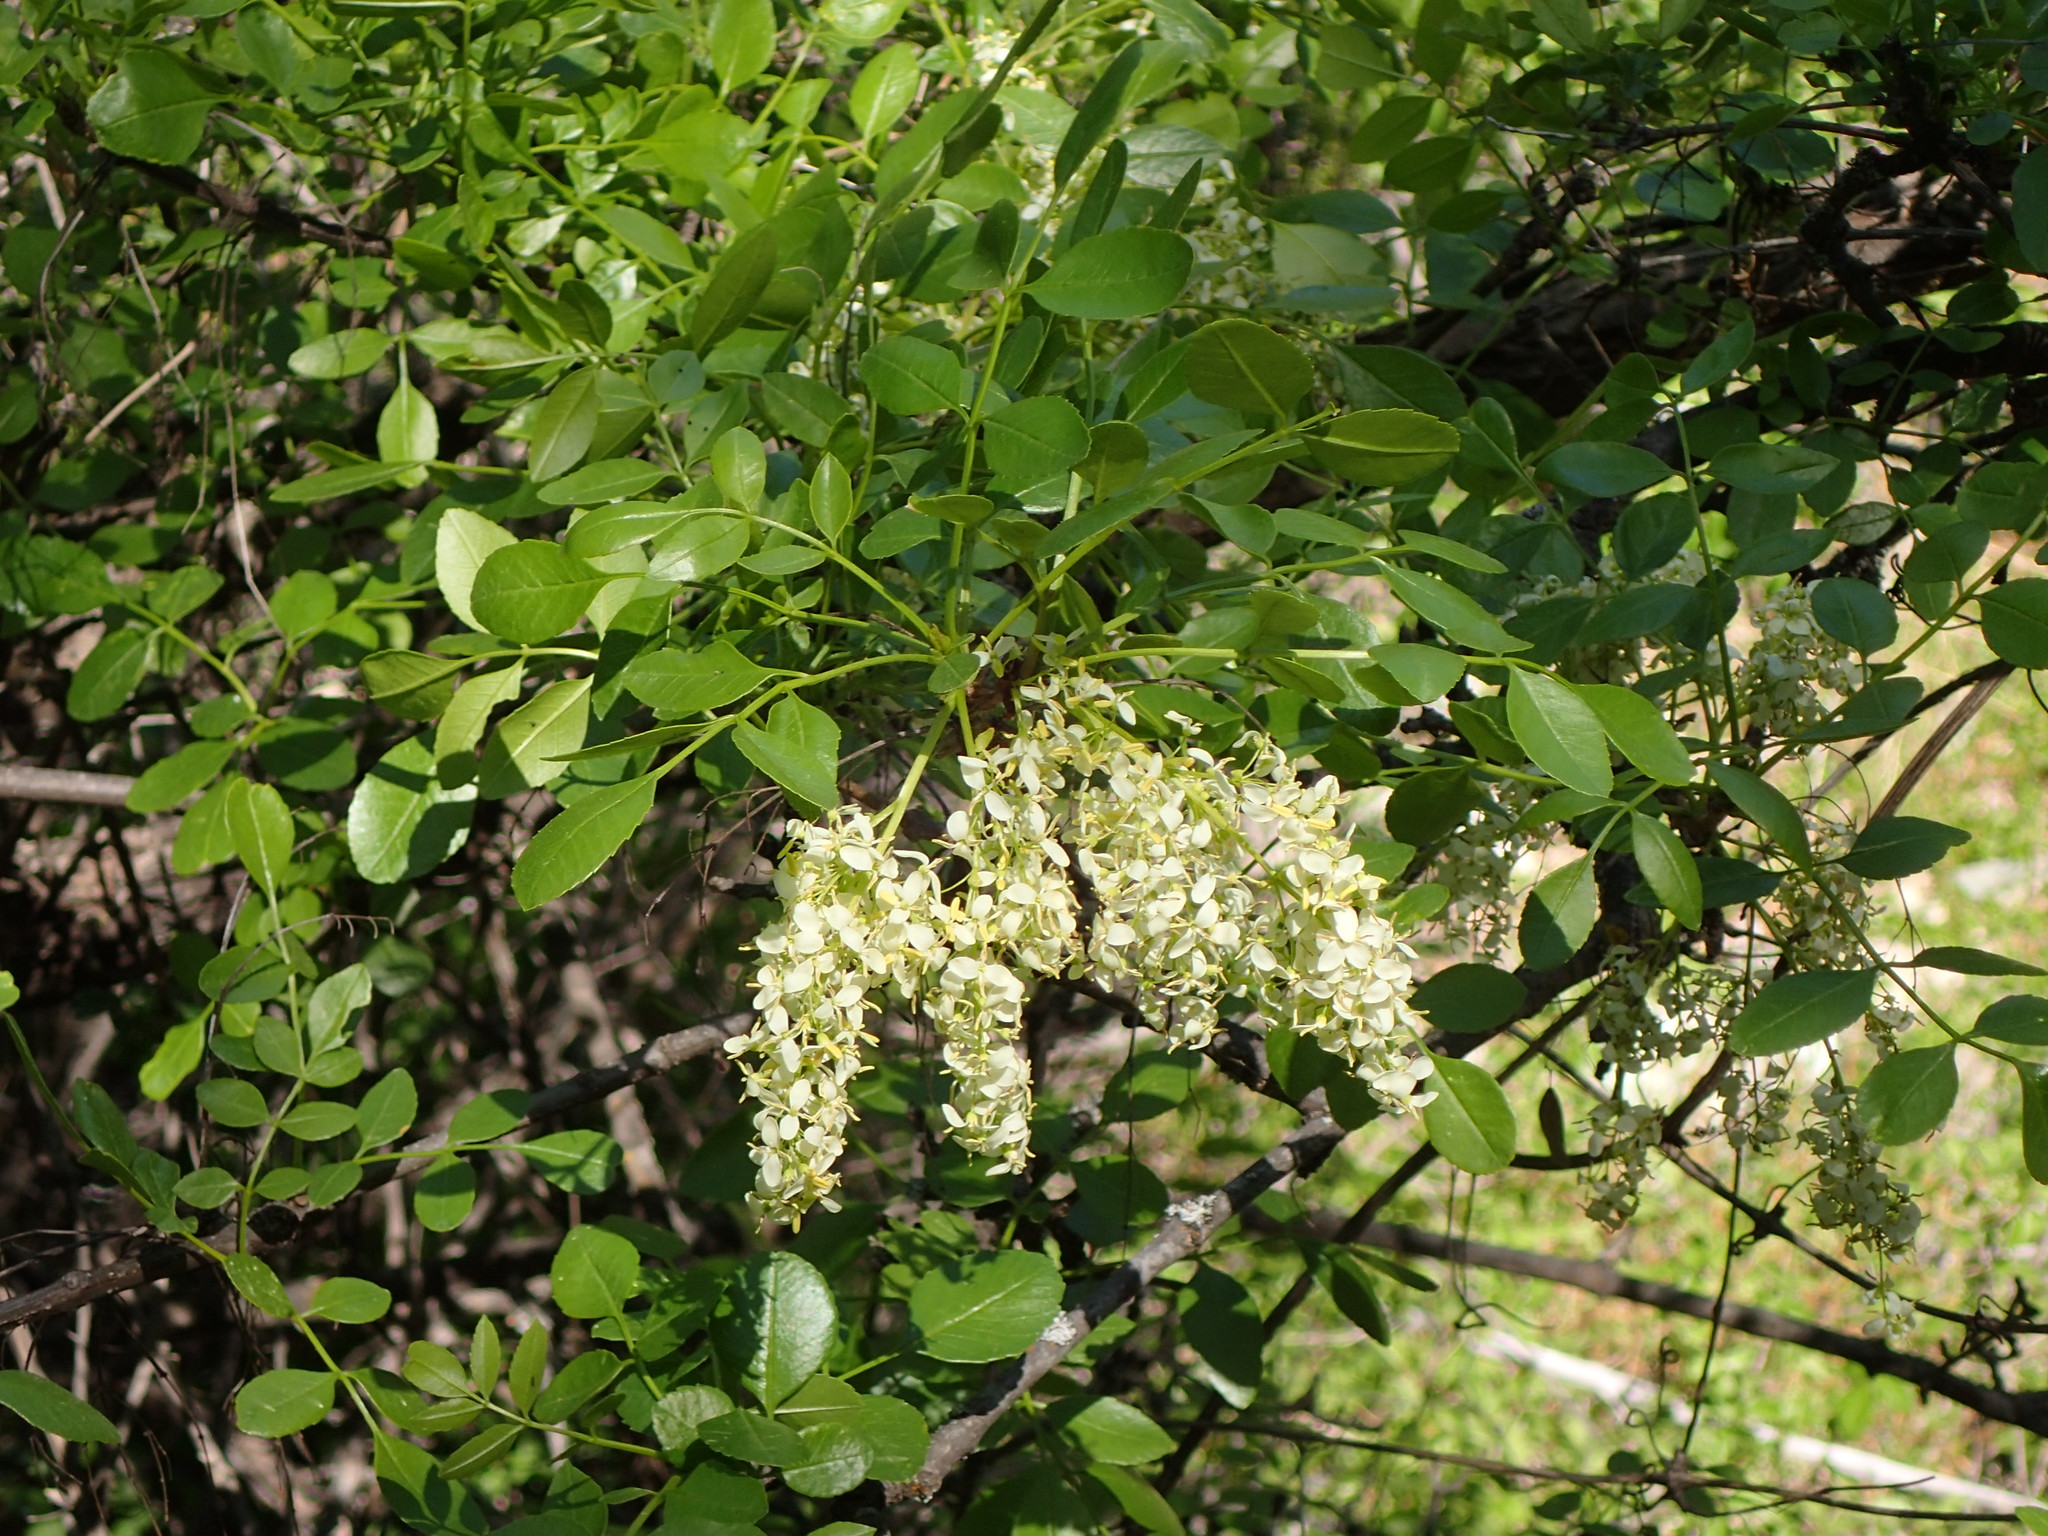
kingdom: Plantae
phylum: Tracheophyta
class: Magnoliopsida
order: Lamiales
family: Oleaceae
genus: Fraxinus
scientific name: Fraxinus dipetala
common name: California ash
